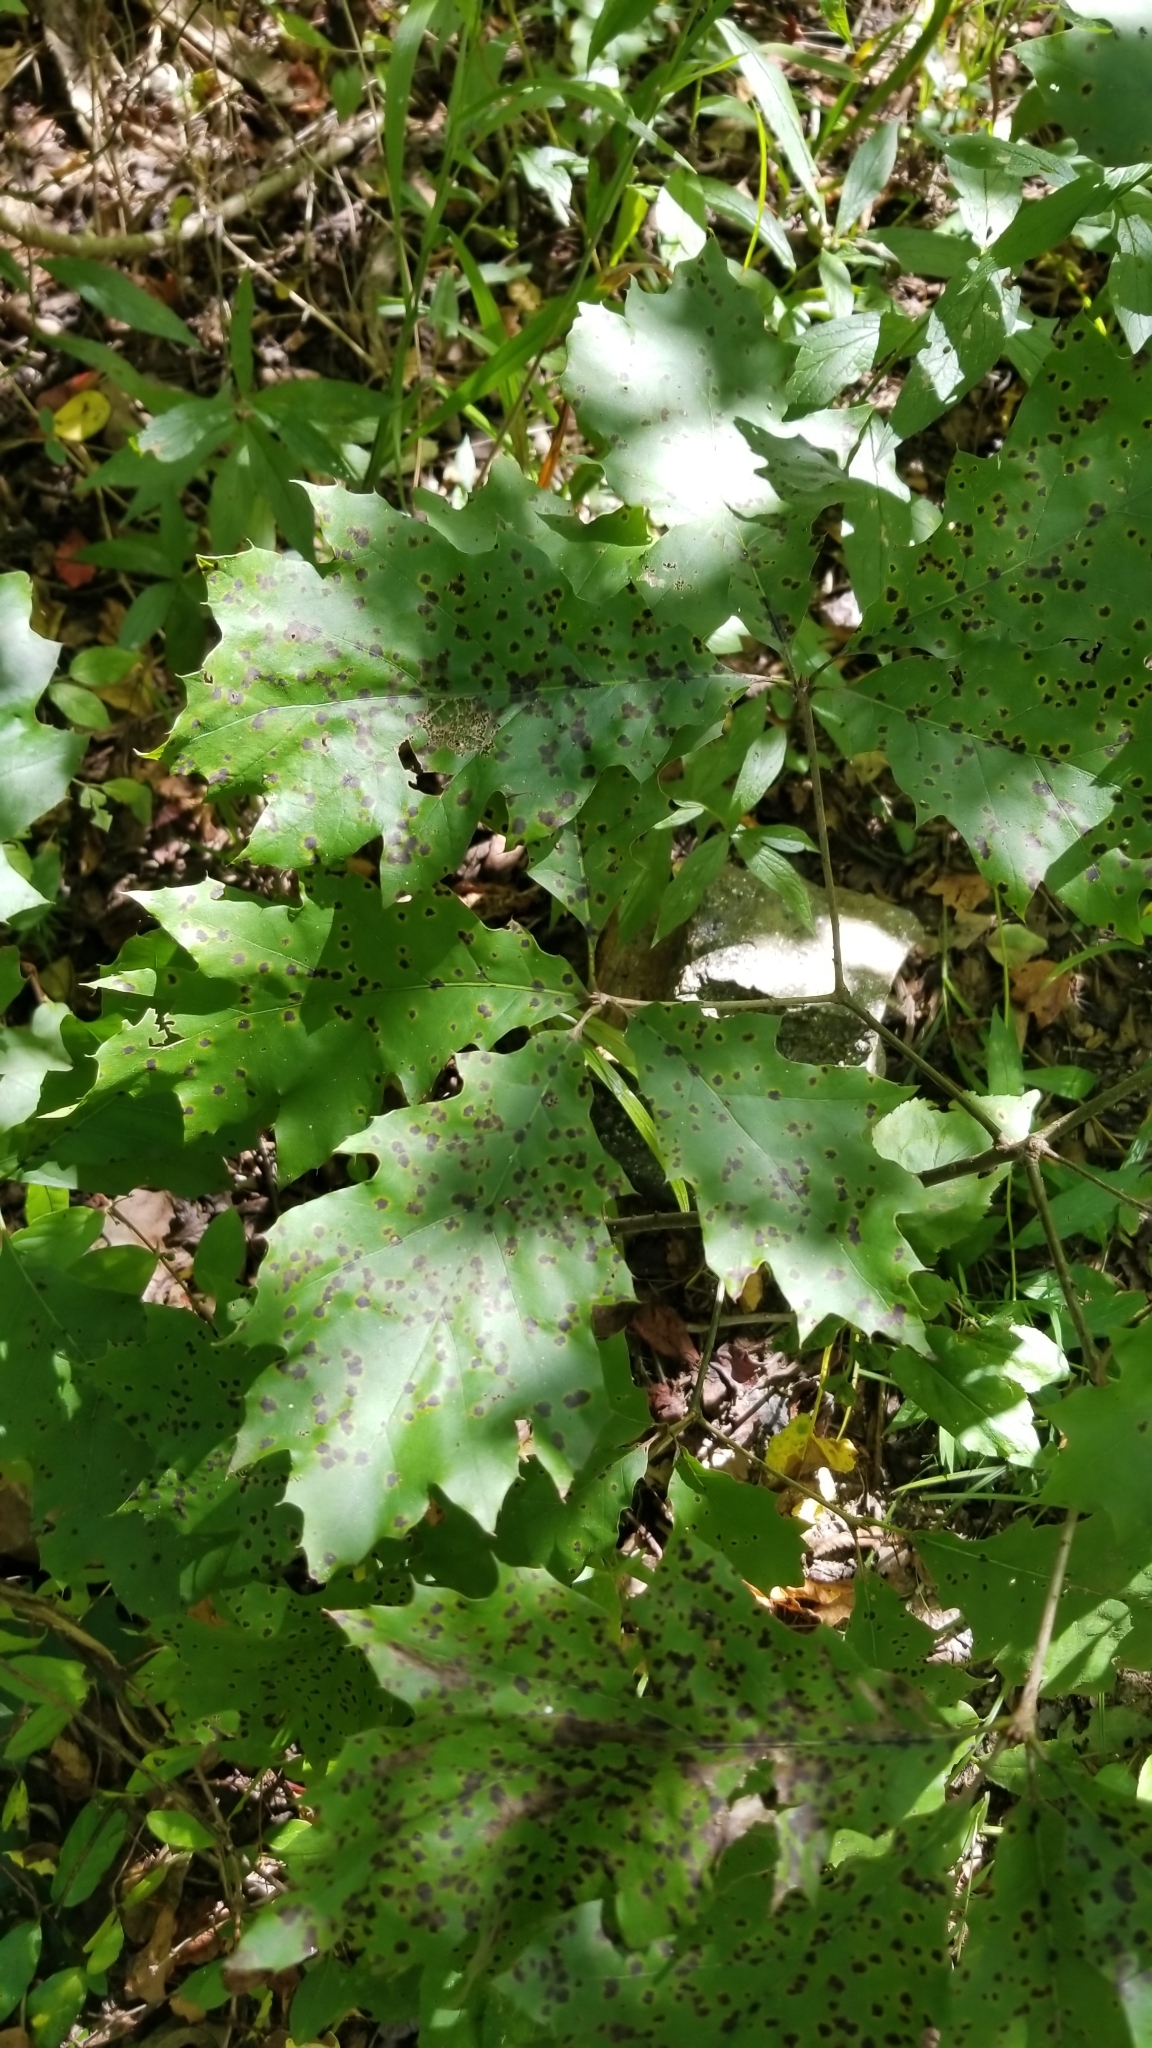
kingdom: Plantae
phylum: Tracheophyta
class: Magnoliopsida
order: Fagales
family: Fagaceae
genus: Quercus
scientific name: Quercus rubra
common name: Red oak
